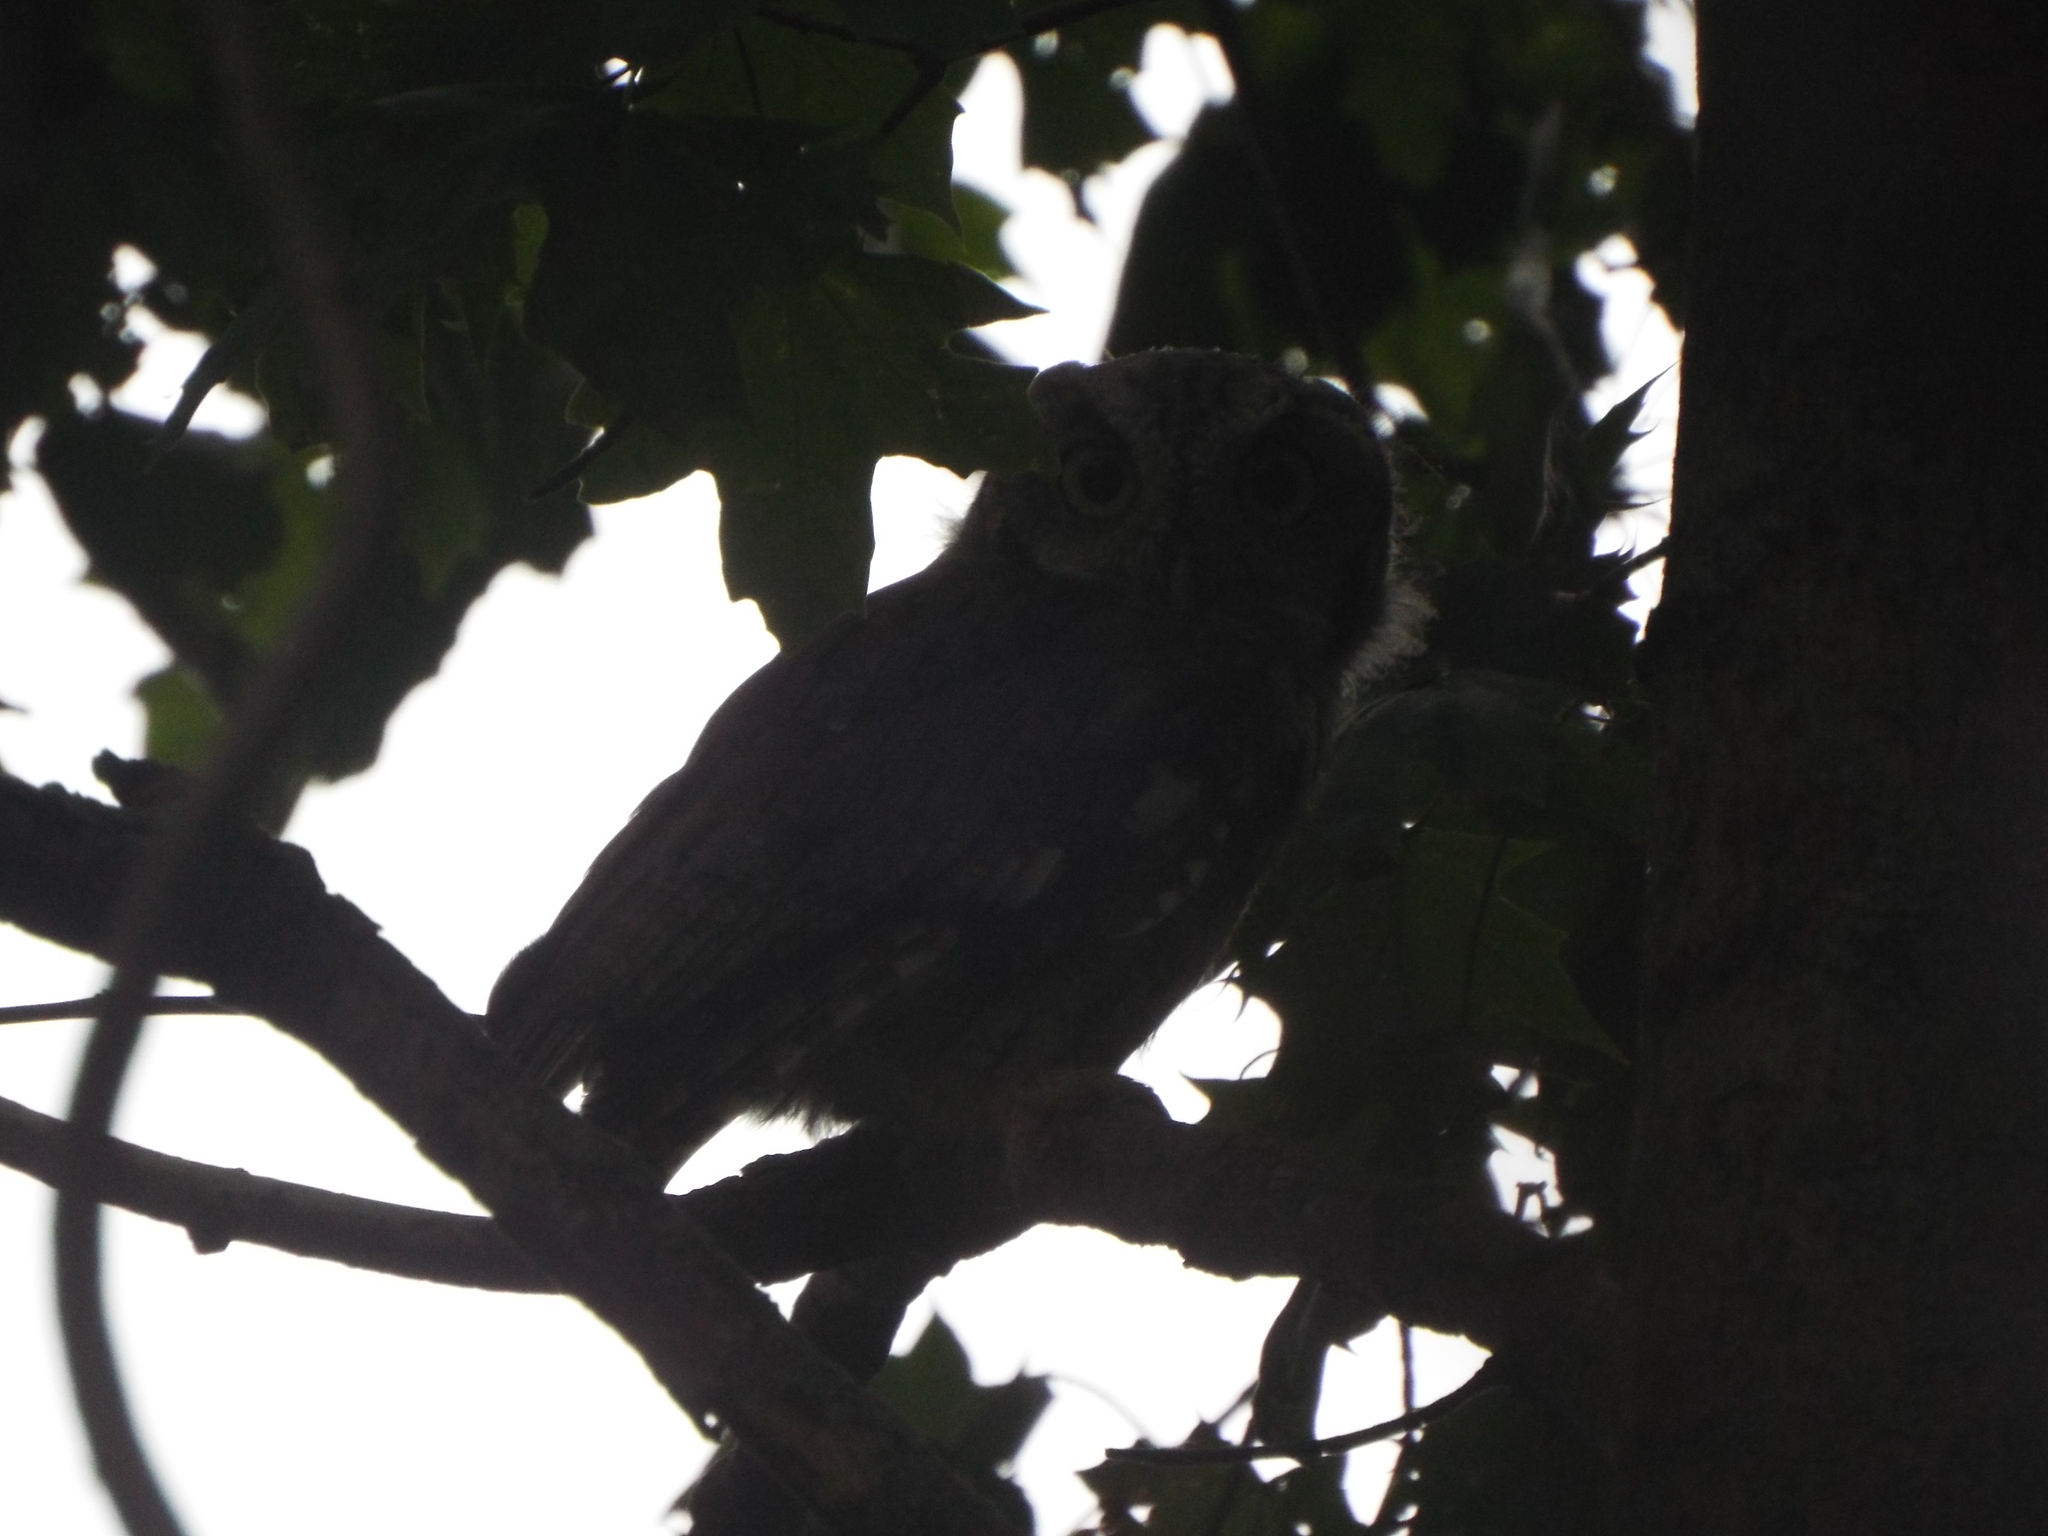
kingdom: Animalia
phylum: Chordata
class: Aves
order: Strigiformes
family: Strigidae
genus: Megascops
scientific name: Megascops asio
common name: Eastern screech-owl
